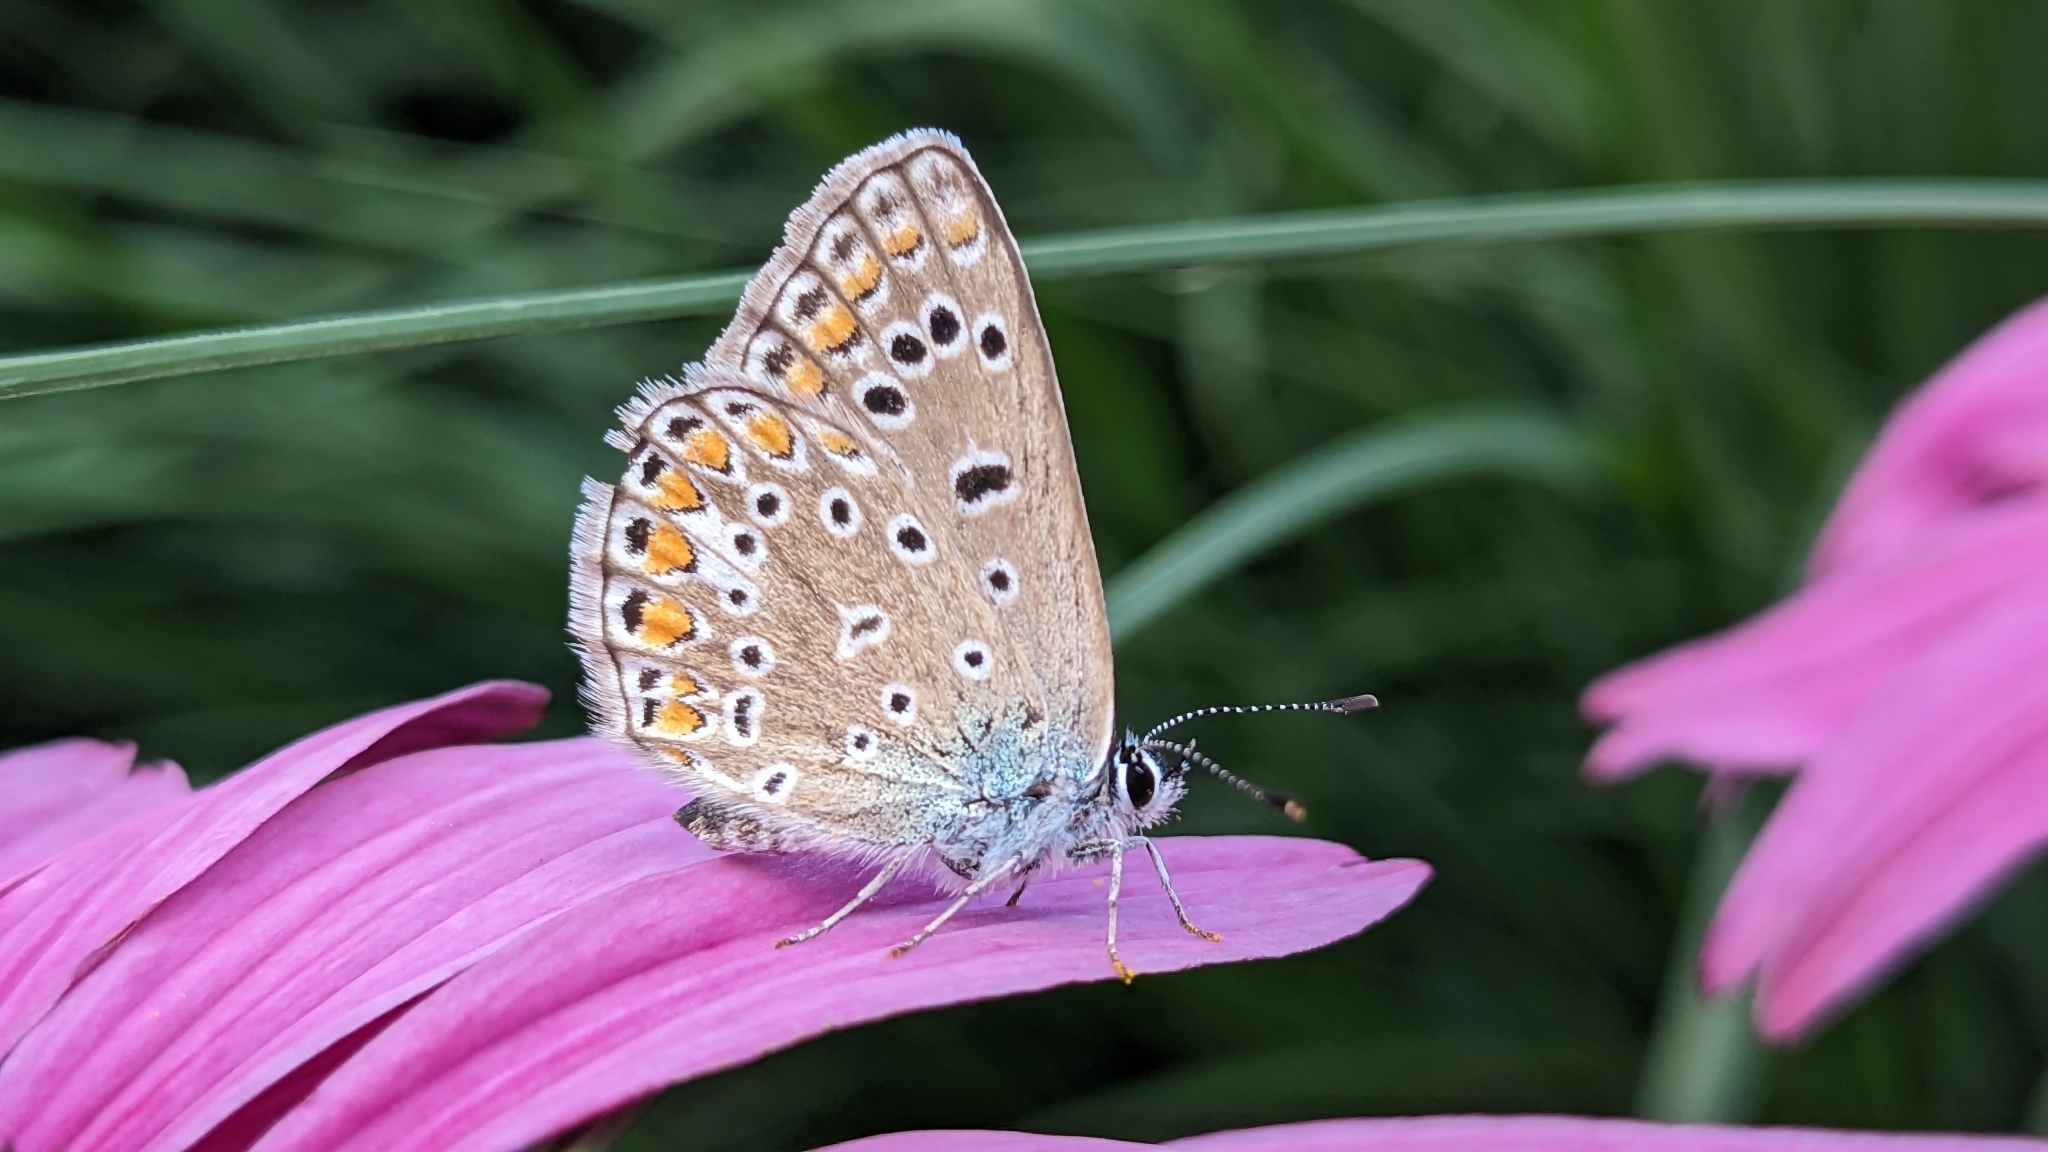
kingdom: Animalia
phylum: Arthropoda
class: Insecta
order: Lepidoptera
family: Lycaenidae
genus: Polyommatus
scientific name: Polyommatus icarus
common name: Common blue
